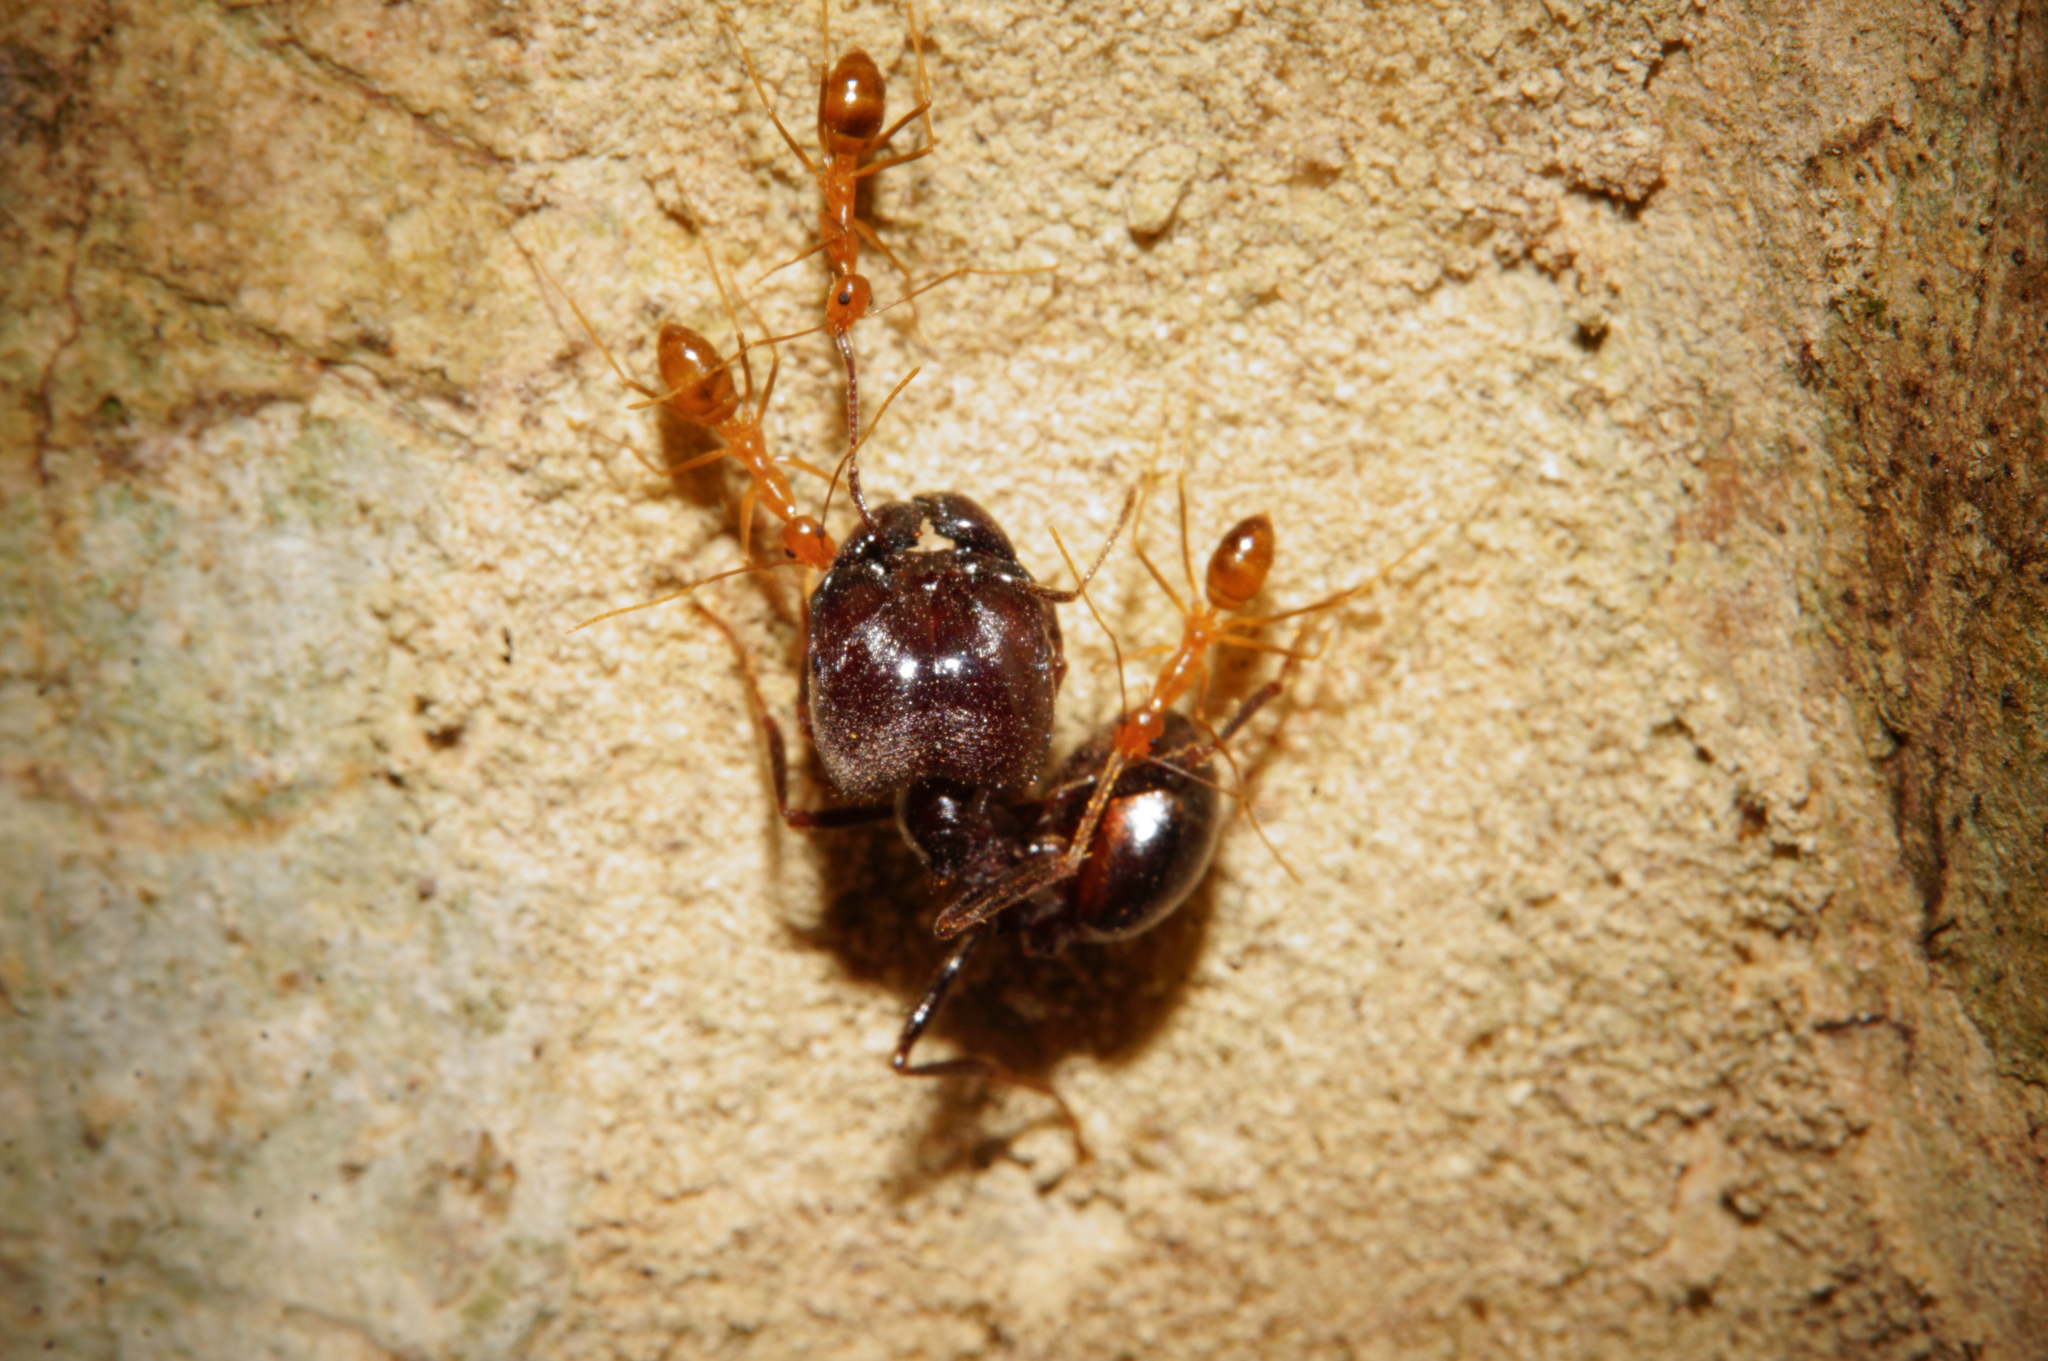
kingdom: Animalia
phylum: Arthropoda
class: Insecta
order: Hymenoptera
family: Formicidae
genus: Anoplolepis
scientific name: Anoplolepis gracilipes
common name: Ant
